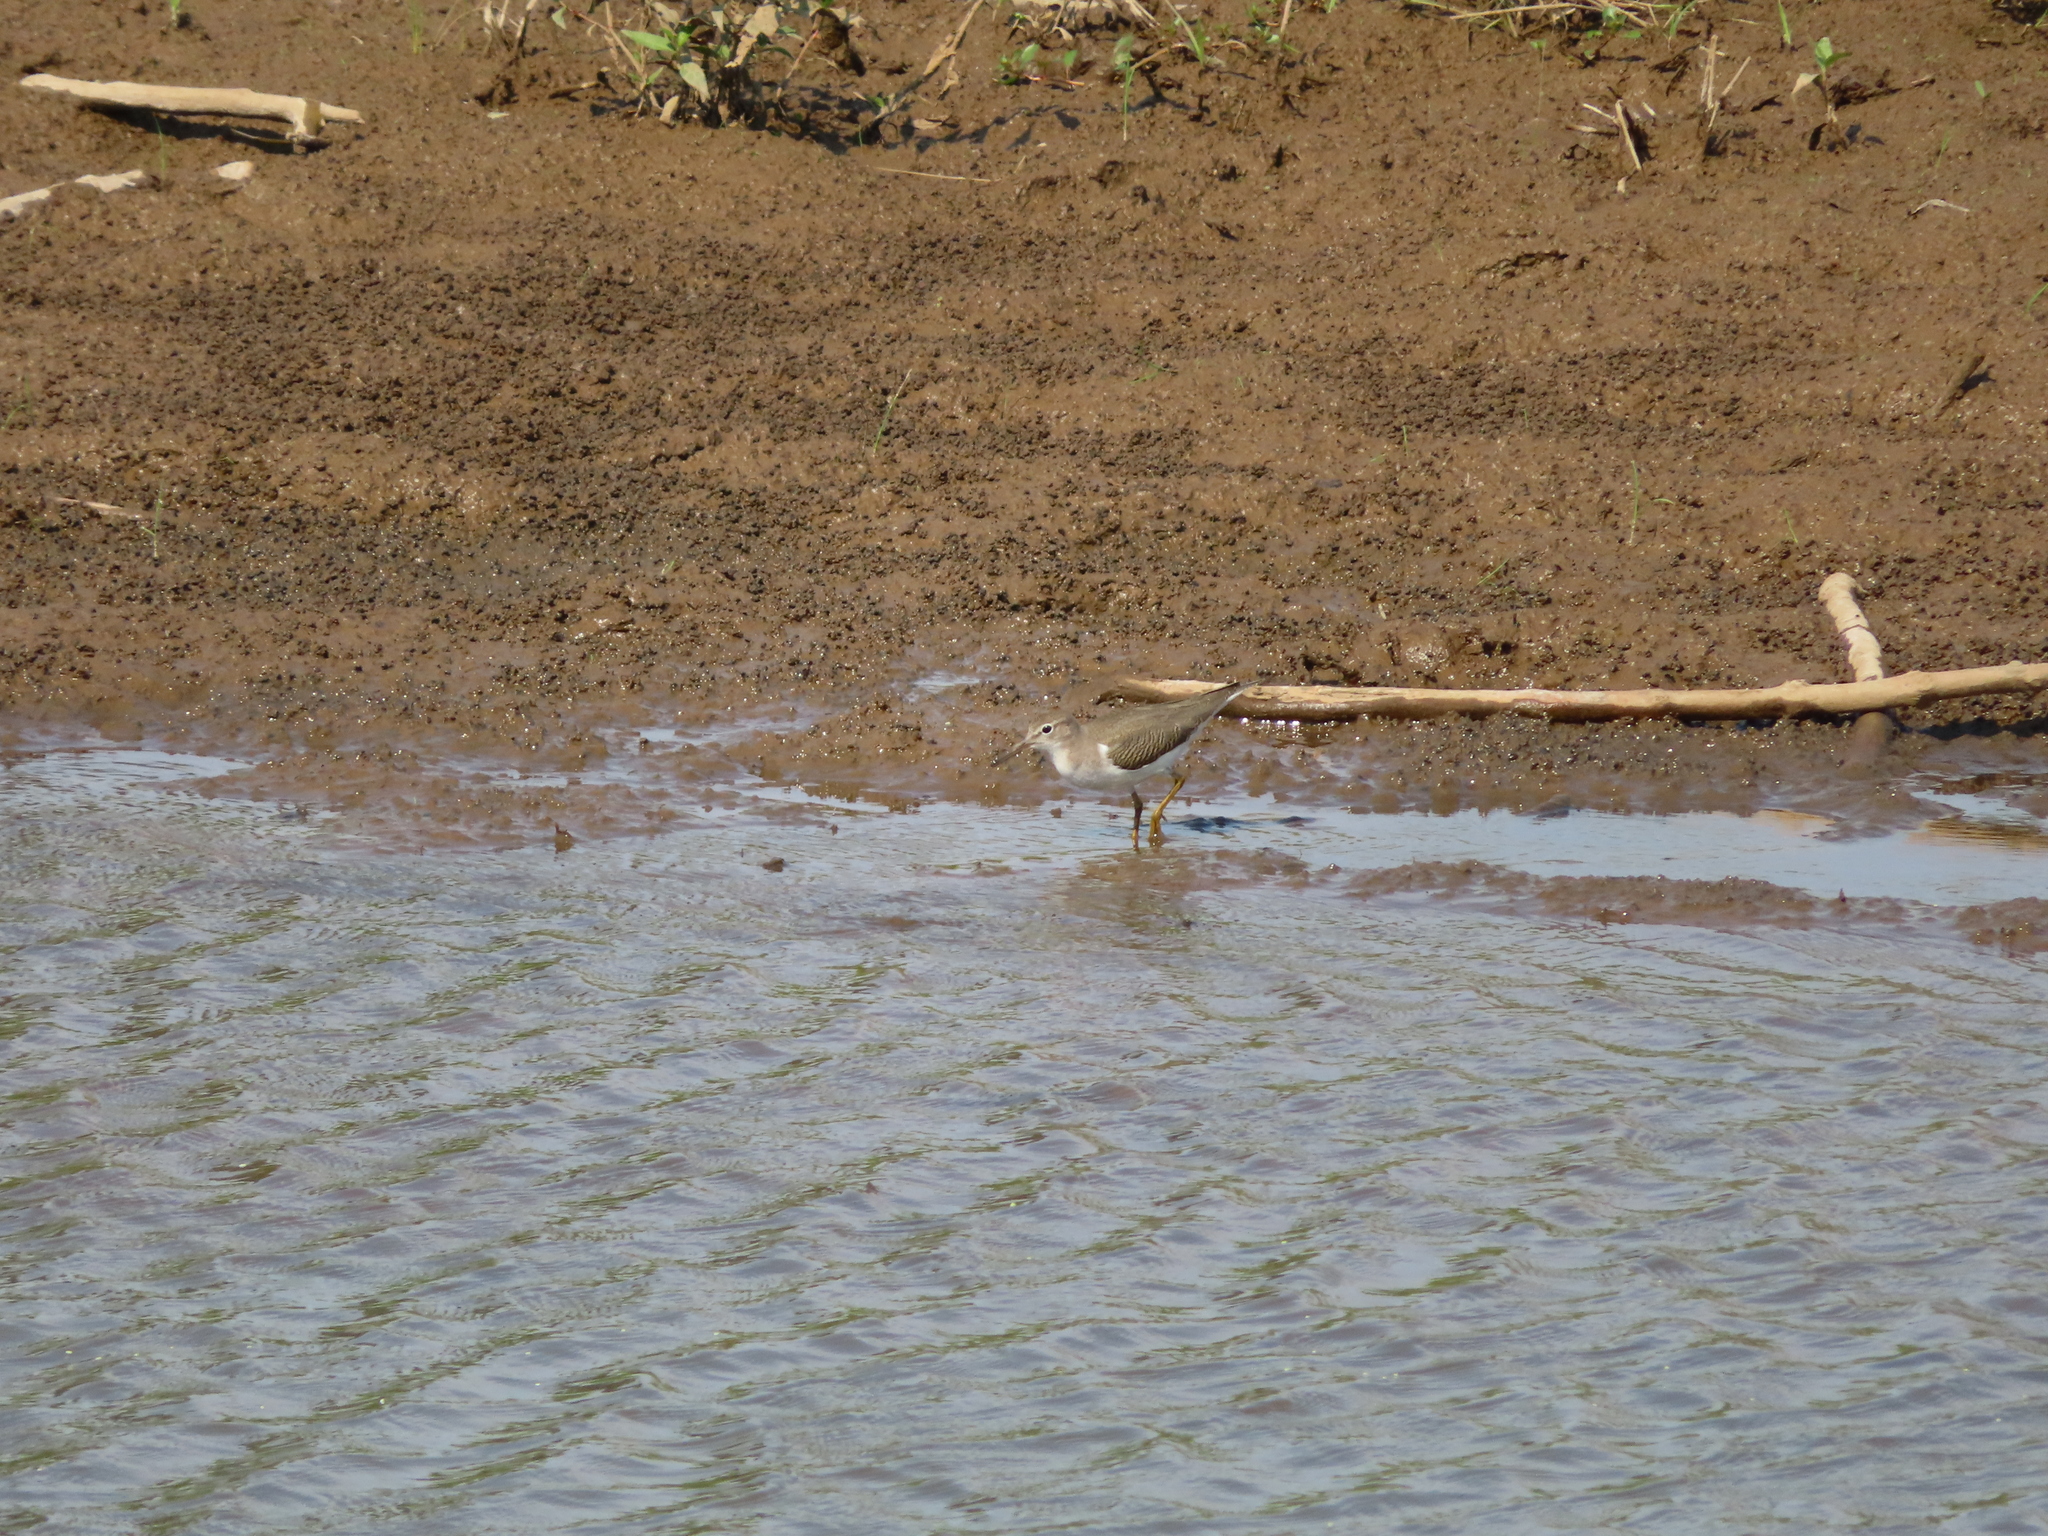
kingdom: Animalia
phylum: Chordata
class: Aves
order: Charadriiformes
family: Scolopacidae
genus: Actitis
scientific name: Actitis macularius
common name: Spotted sandpiper
